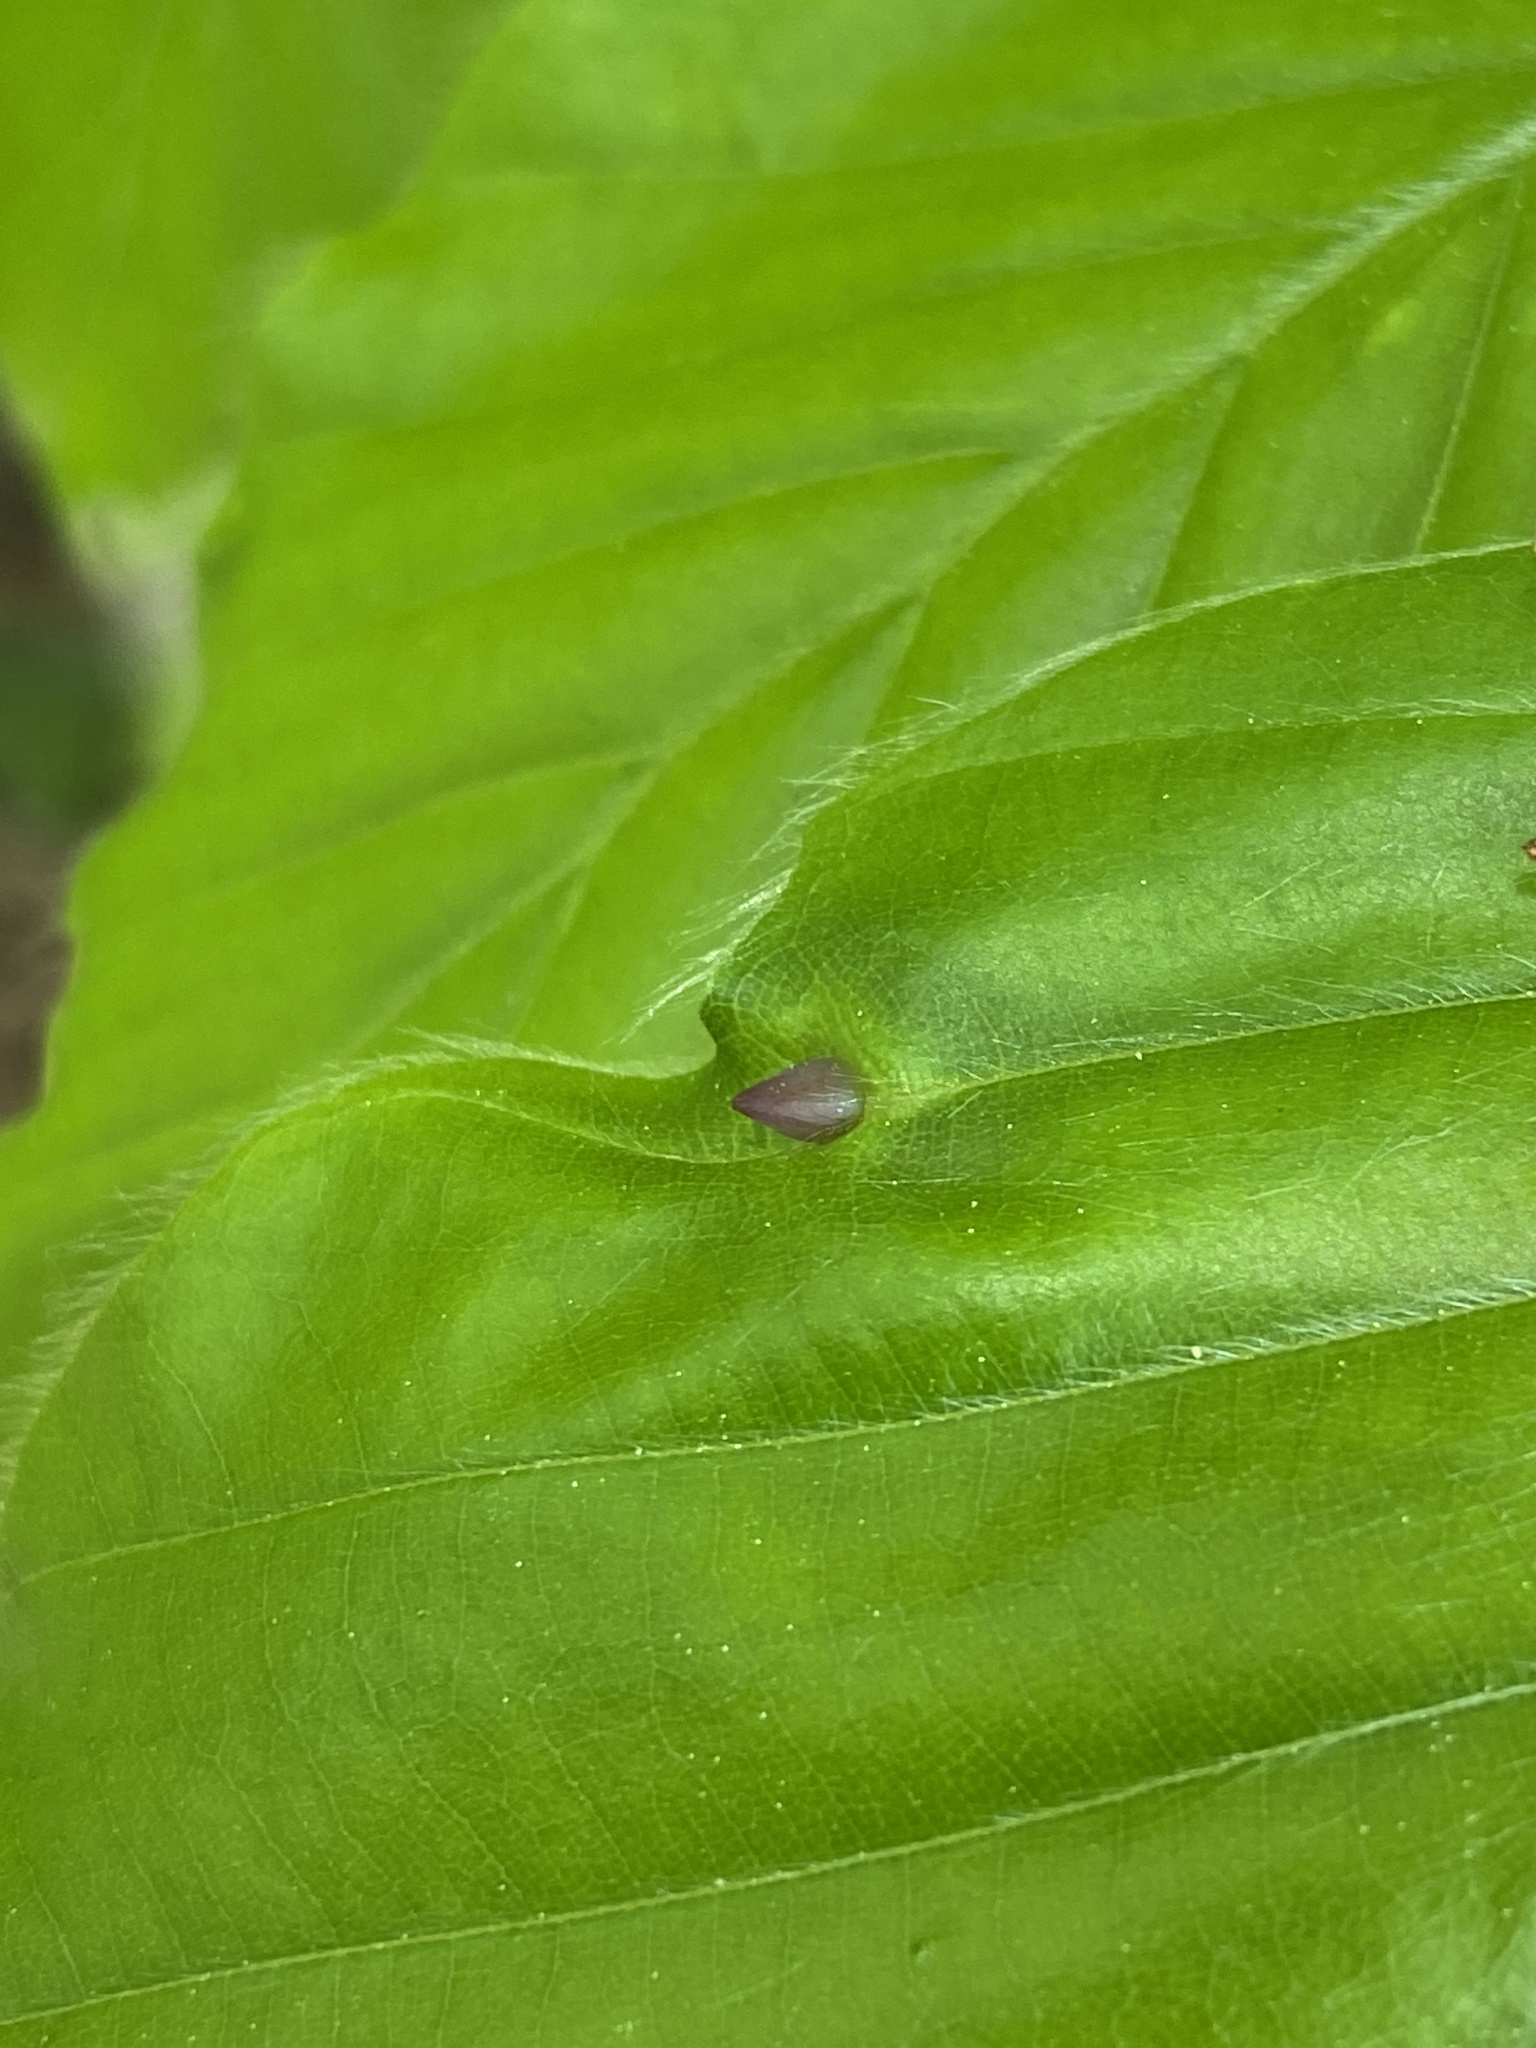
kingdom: Animalia
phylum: Arthropoda
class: Insecta
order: Diptera
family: Cecidomyiidae
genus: Mikiola
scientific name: Mikiola fagi
